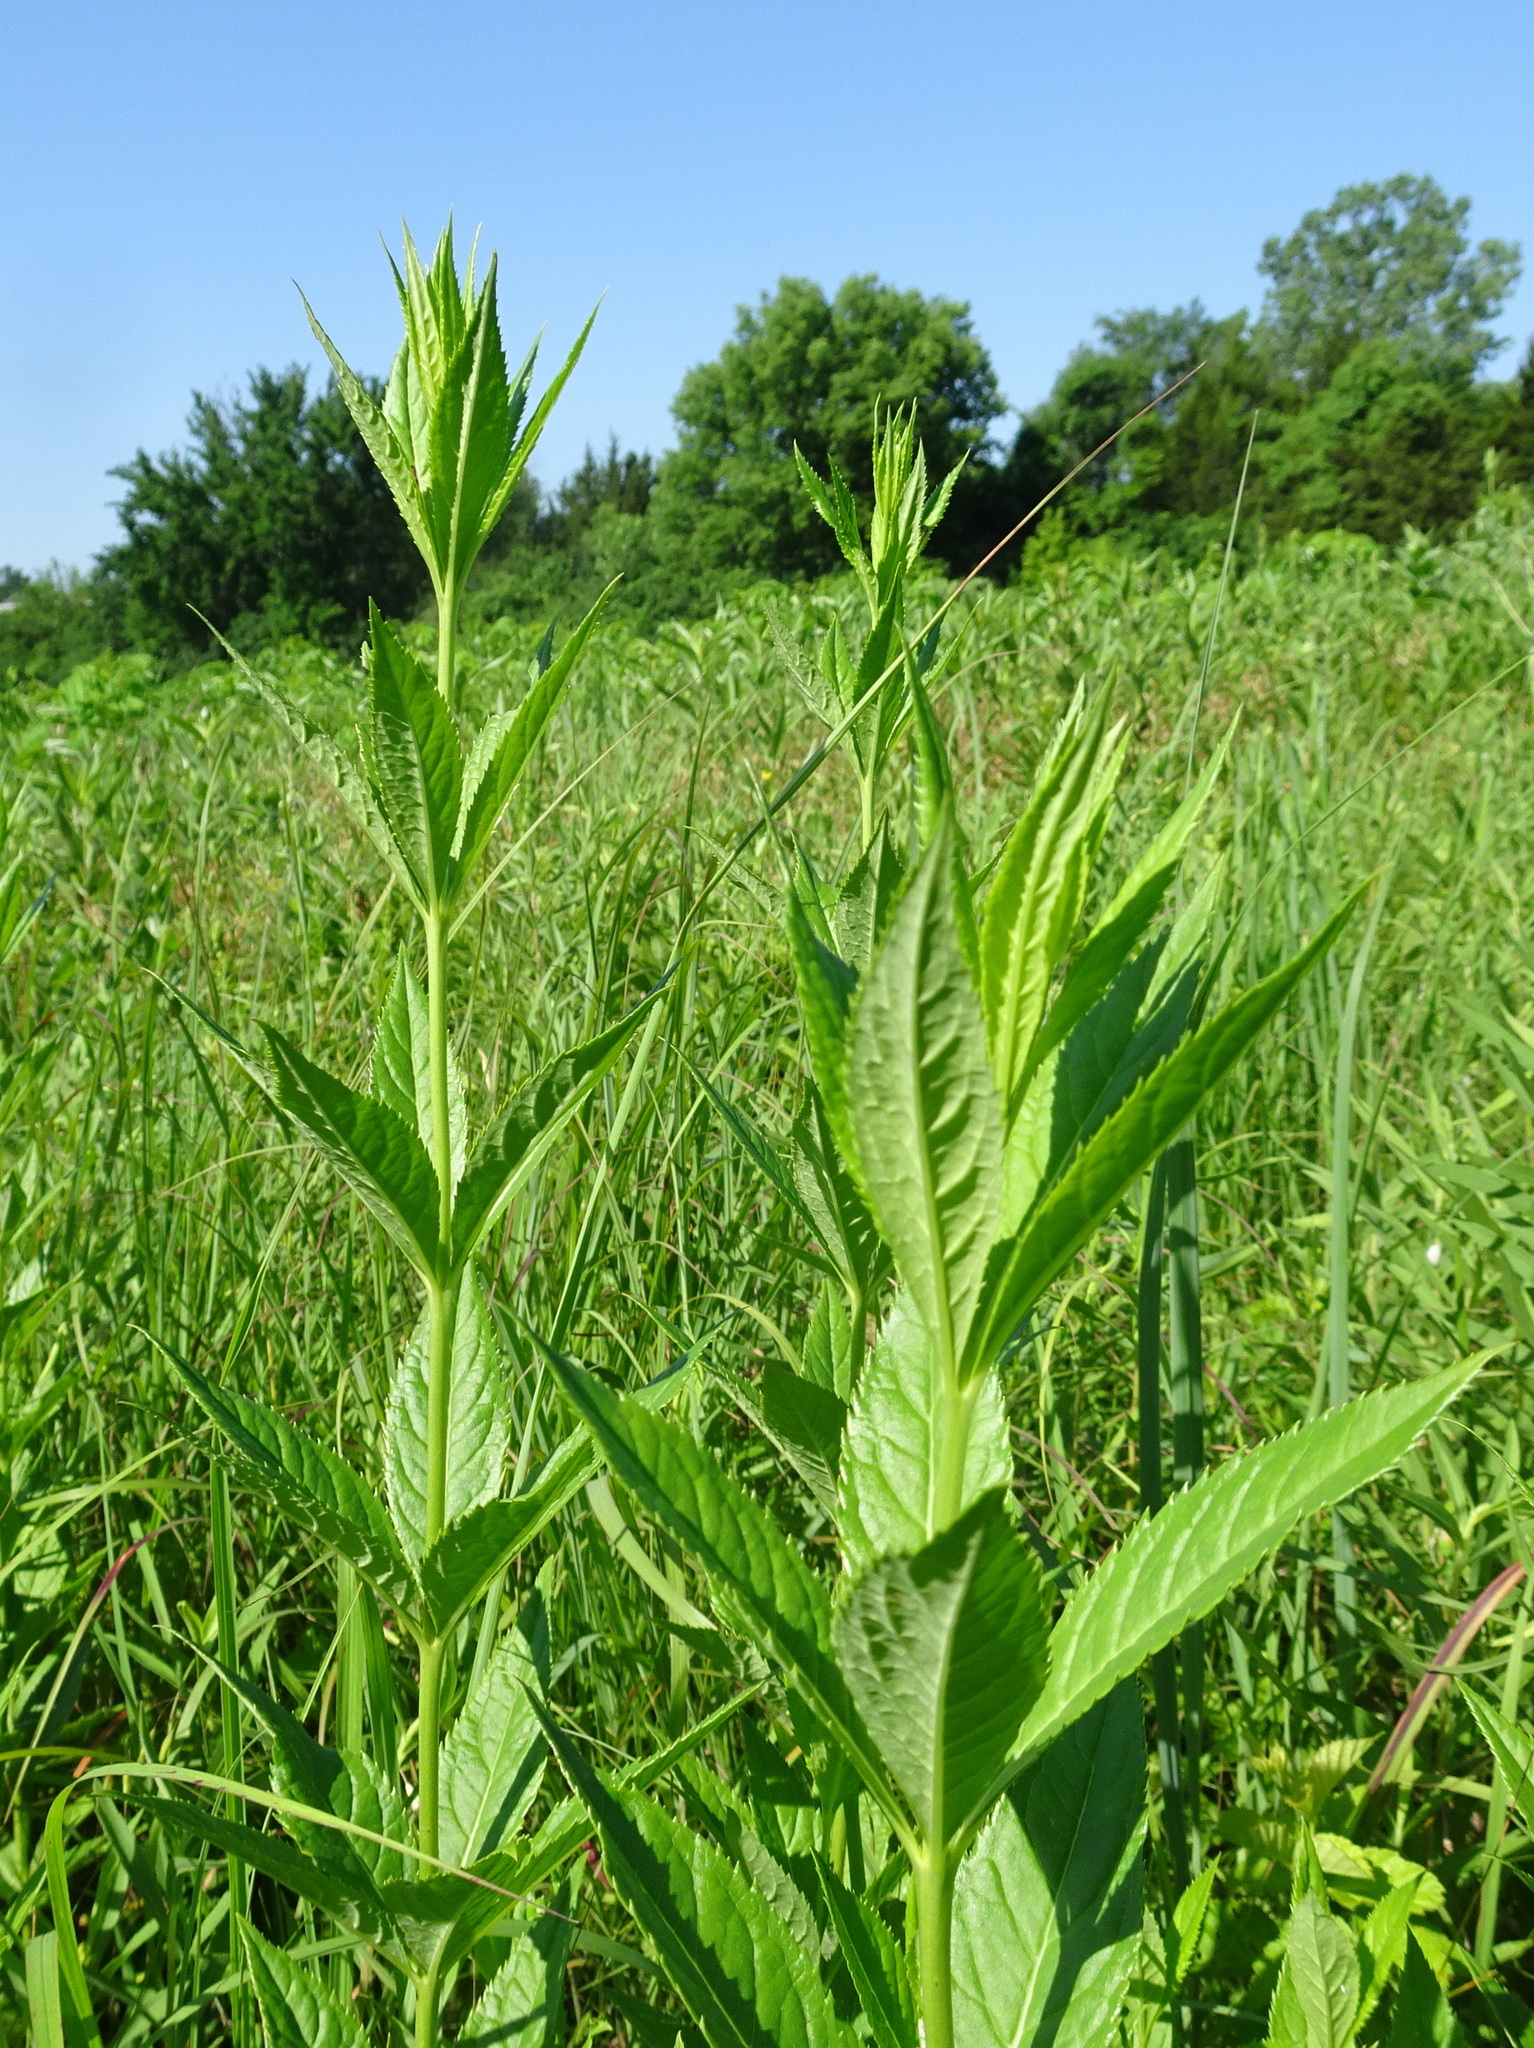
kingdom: Plantae
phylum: Tracheophyta
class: Magnoliopsida
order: Lamiales
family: Plantaginaceae
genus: Veronicastrum
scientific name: Veronicastrum virginicum
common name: Blackroot
